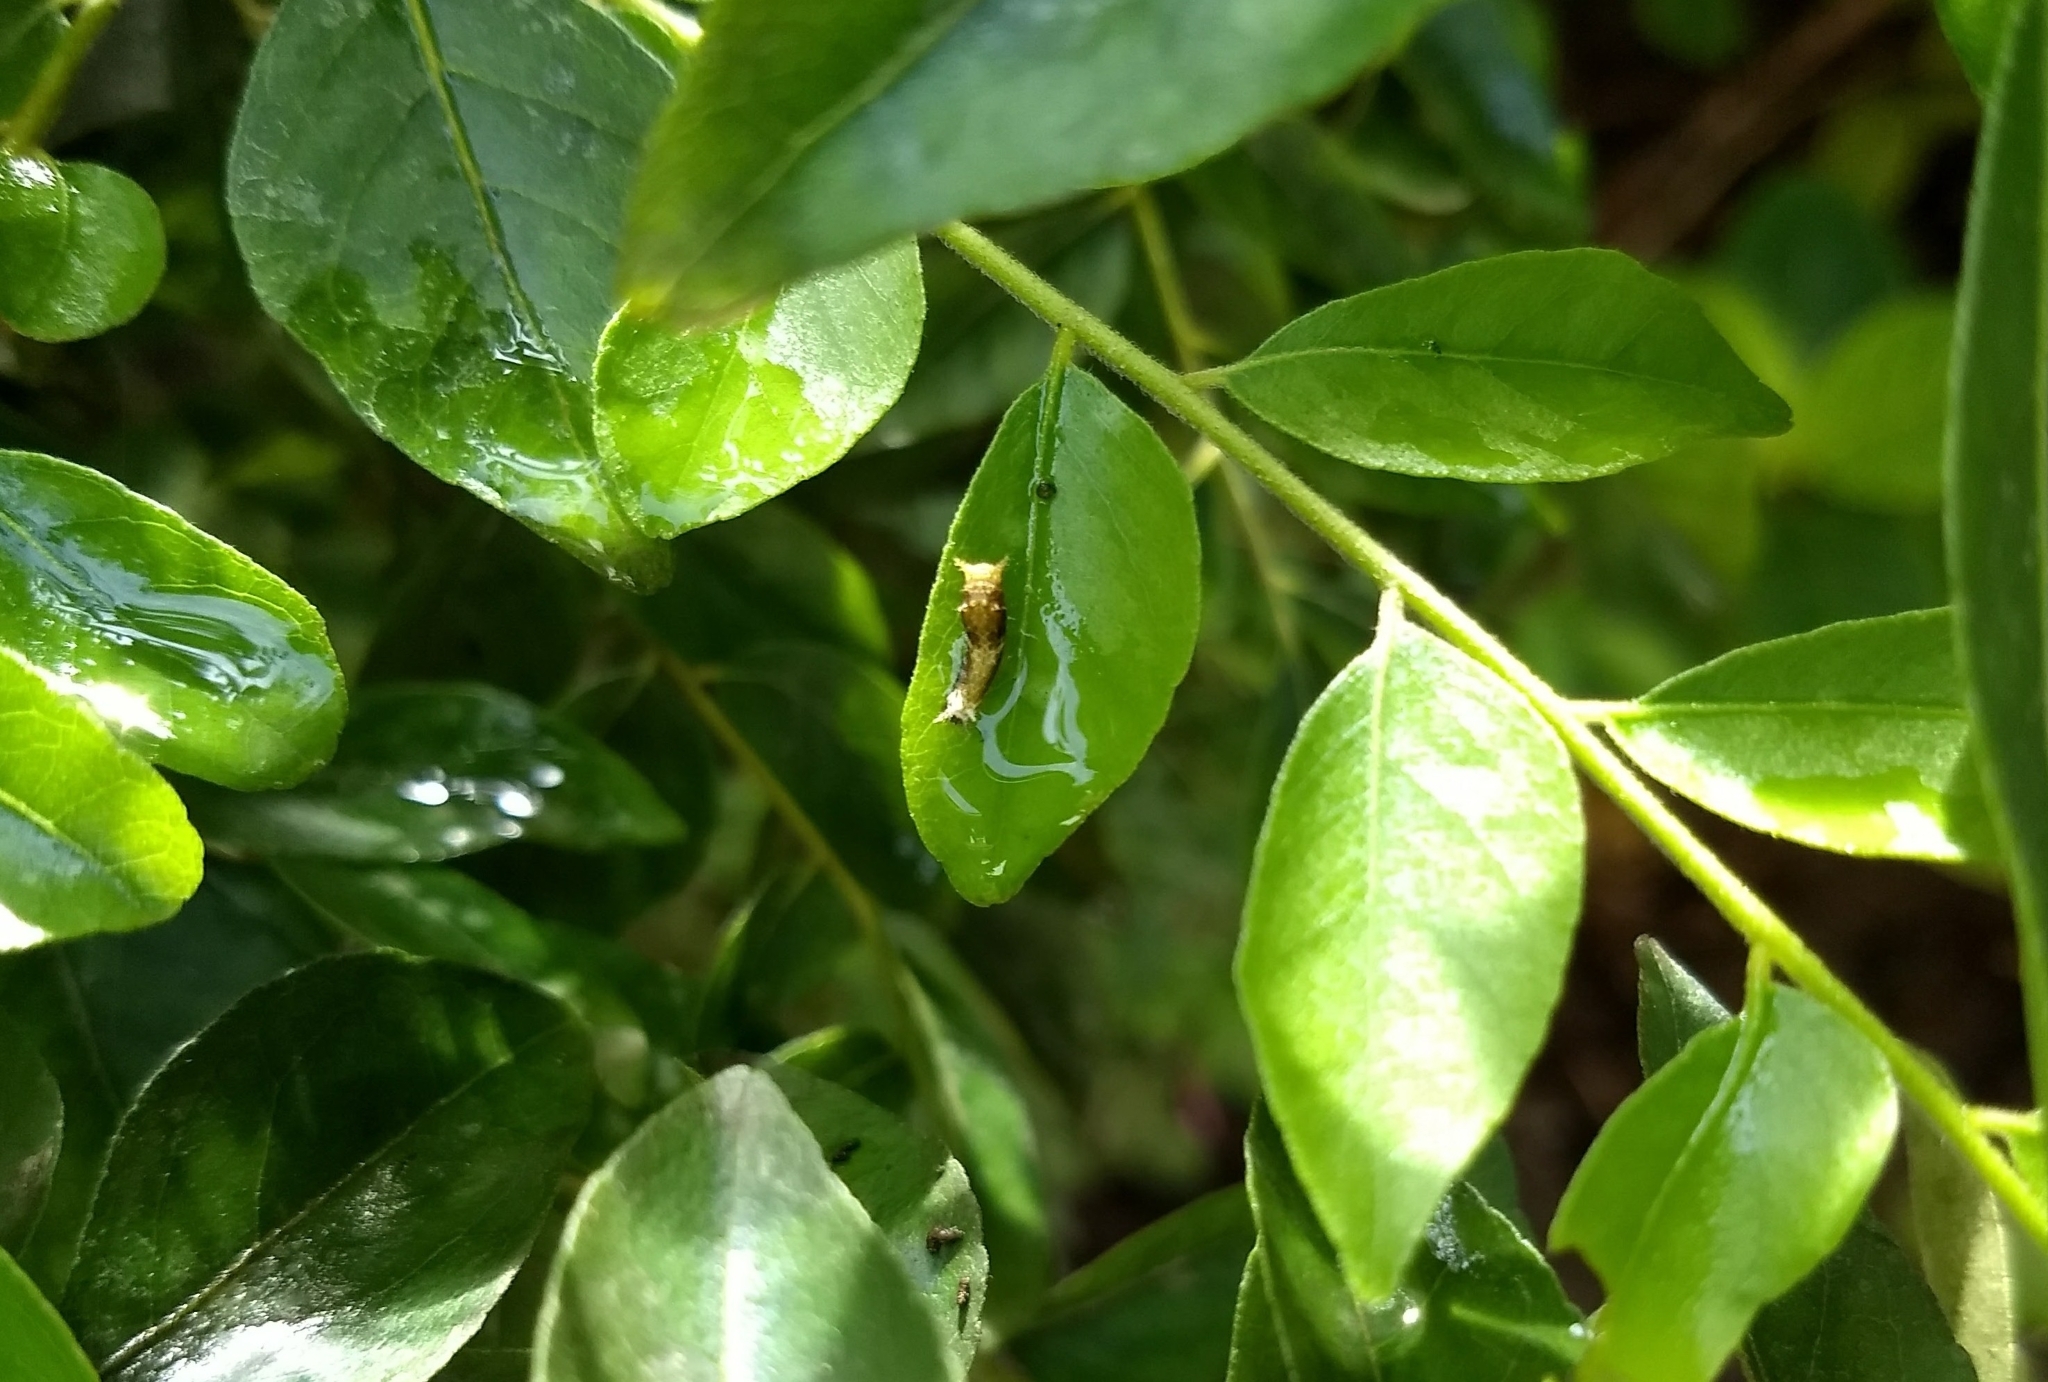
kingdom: Animalia
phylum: Arthropoda
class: Insecta
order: Lepidoptera
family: Papilionidae
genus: Papilio
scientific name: Papilio polytes
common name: Common mormon
